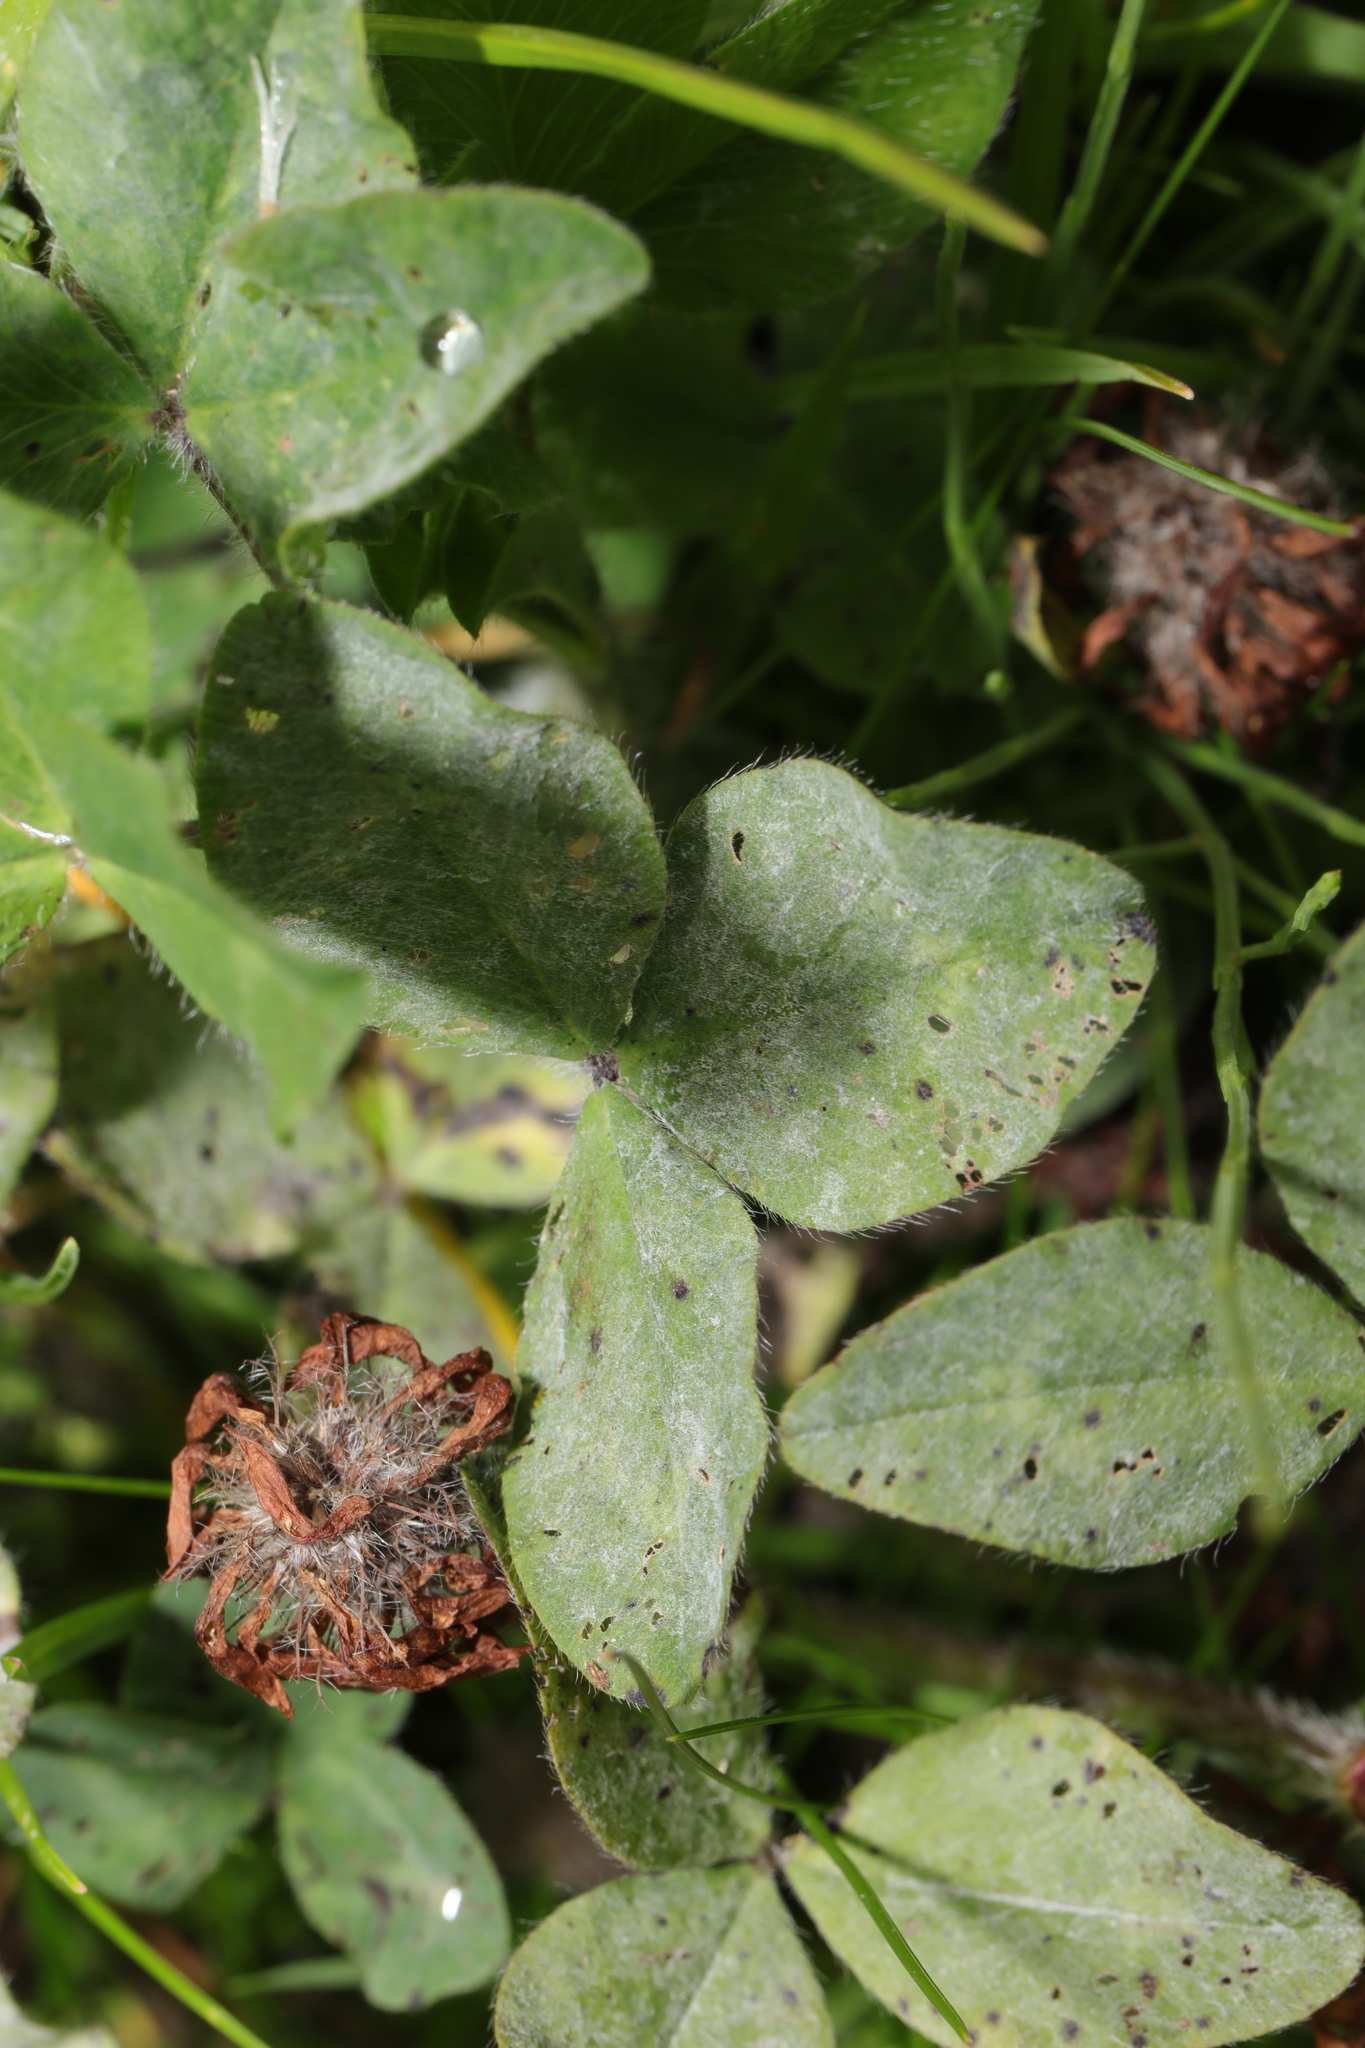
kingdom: Plantae
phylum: Tracheophyta
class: Magnoliopsida
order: Fabales
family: Fabaceae
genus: Trifolium
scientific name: Trifolium pratense
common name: Red clover
